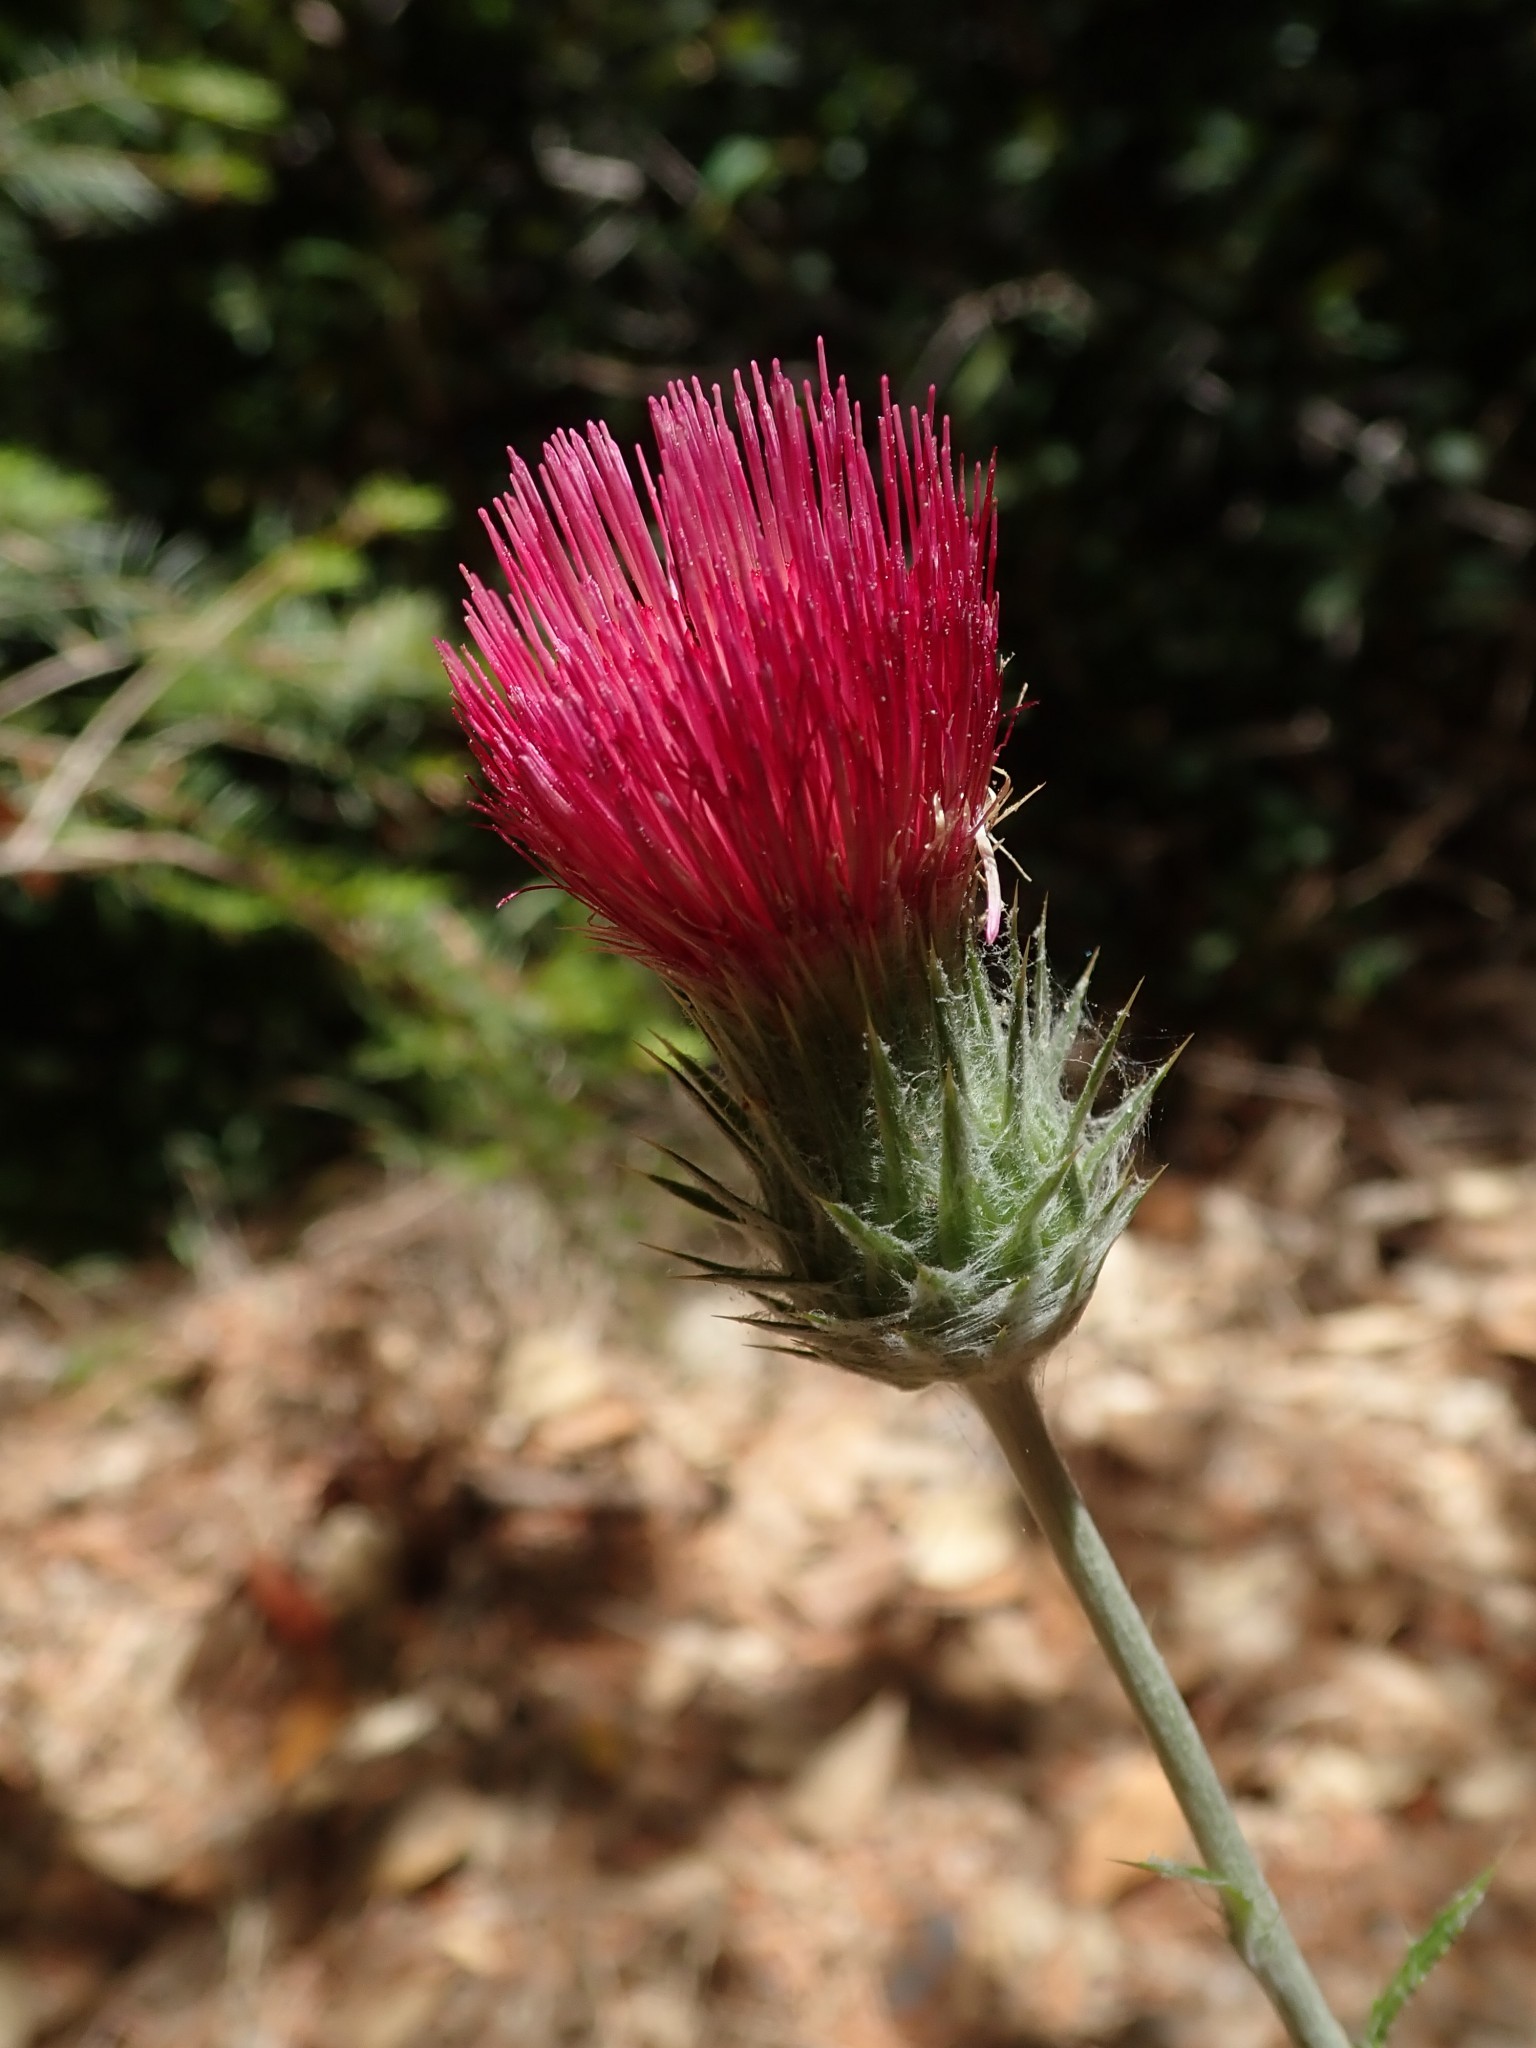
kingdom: Plantae
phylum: Tracheophyta
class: Magnoliopsida
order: Asterales
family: Asteraceae
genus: Cirsium
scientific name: Cirsium occidentale
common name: Western thistle
